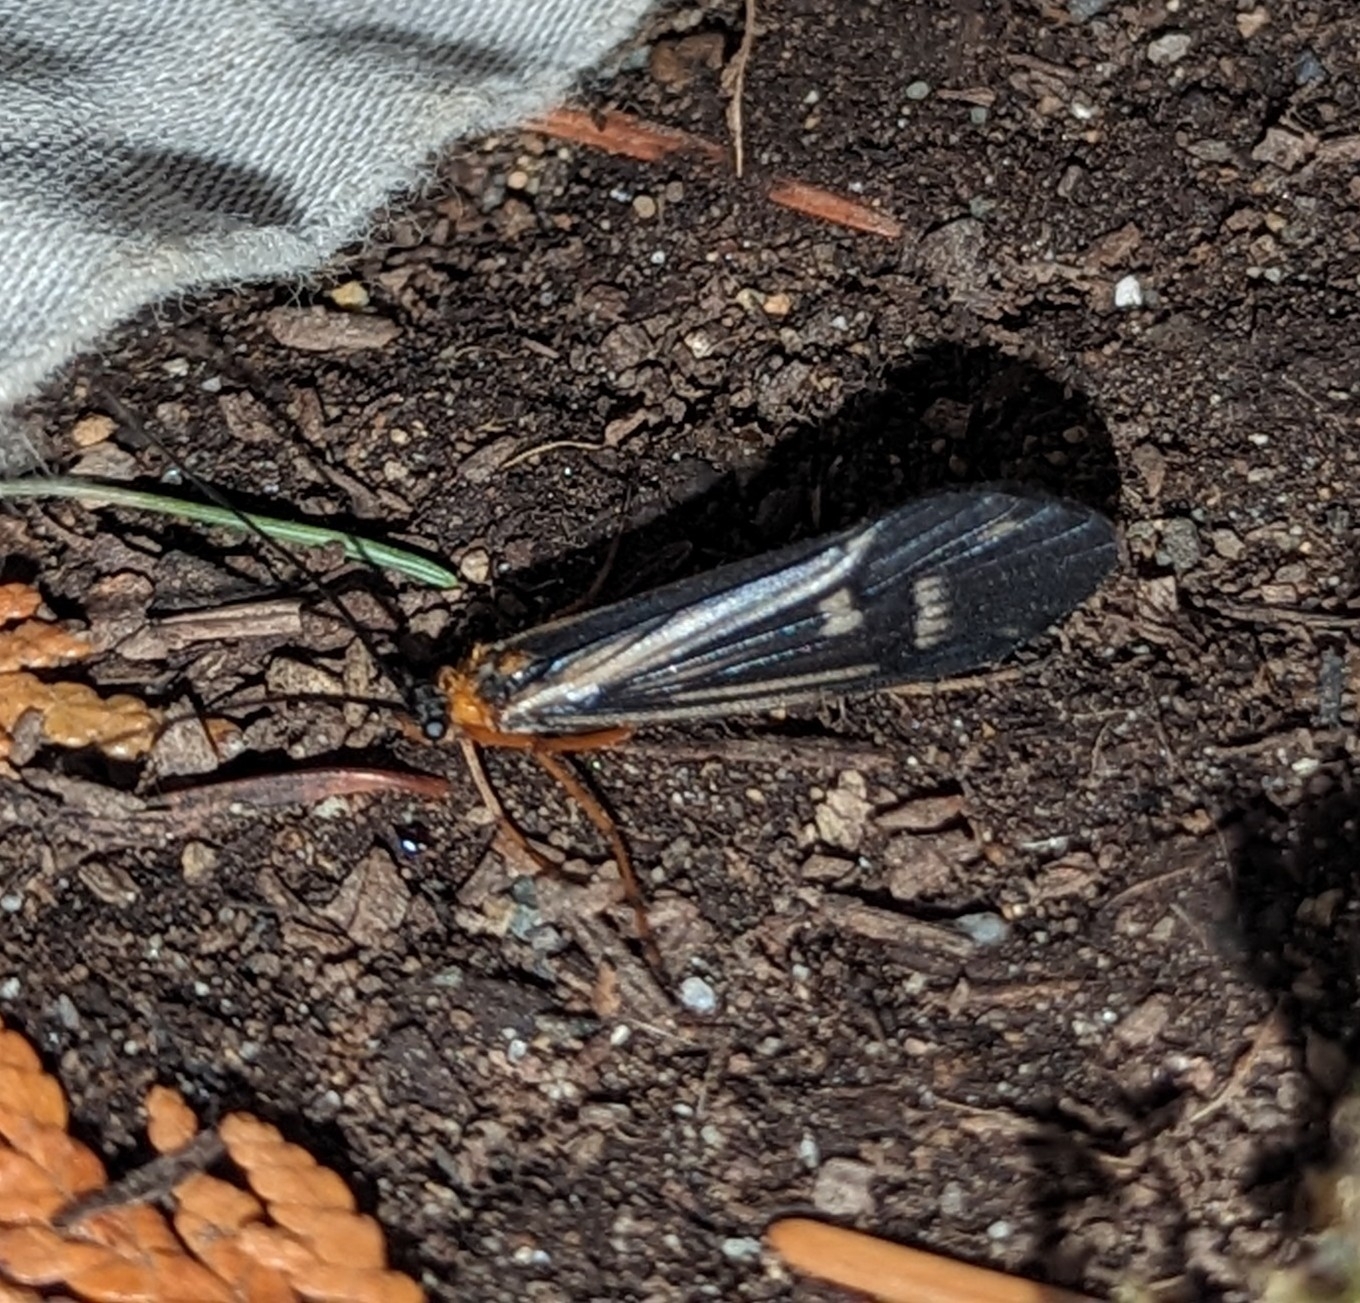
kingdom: Animalia
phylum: Arthropoda
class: Insecta
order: Trichoptera
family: Limnephilidae
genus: Halesochila
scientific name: Halesochila taylori
